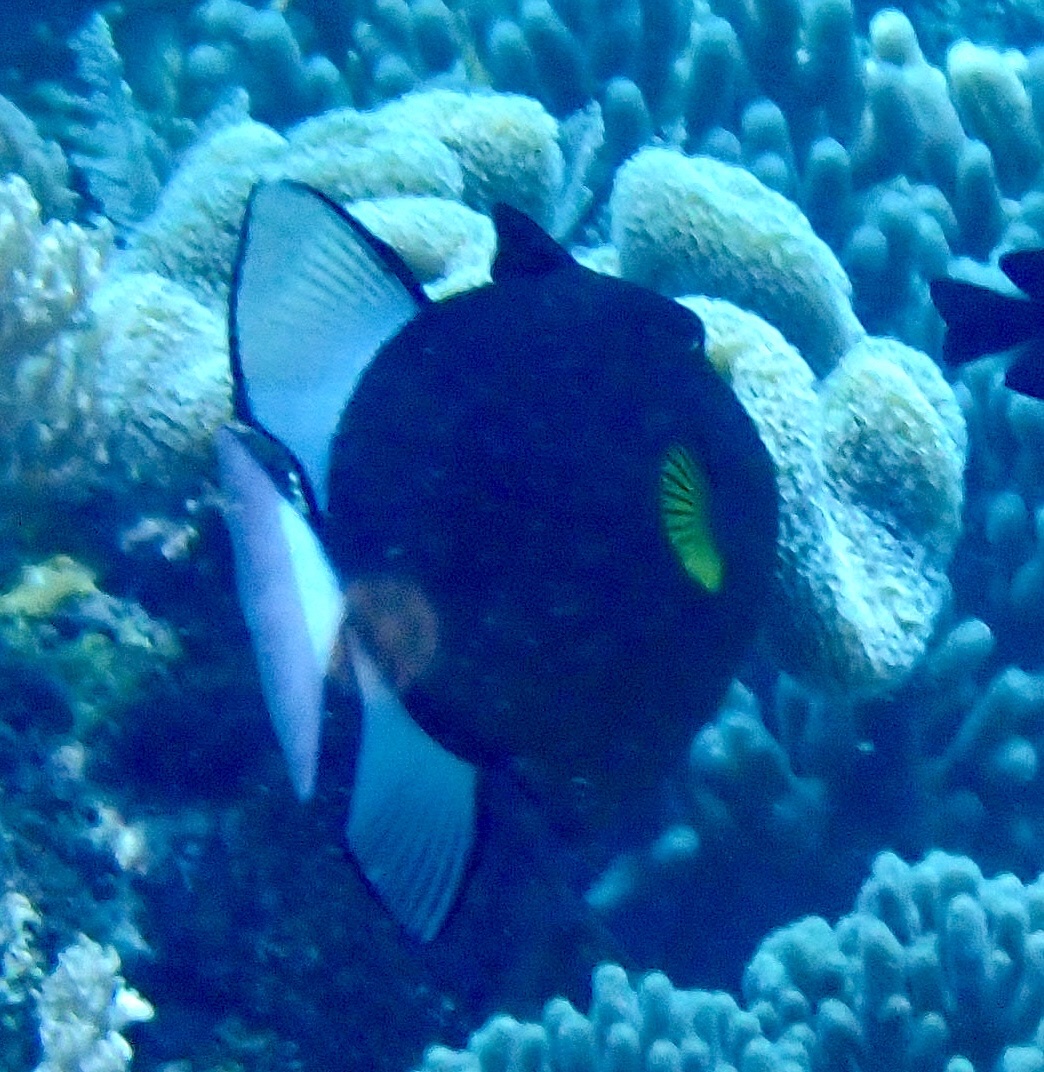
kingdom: Animalia
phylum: Chordata
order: Tetraodontiformes
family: Balistidae
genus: Melichthys
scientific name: Melichthys vidua
